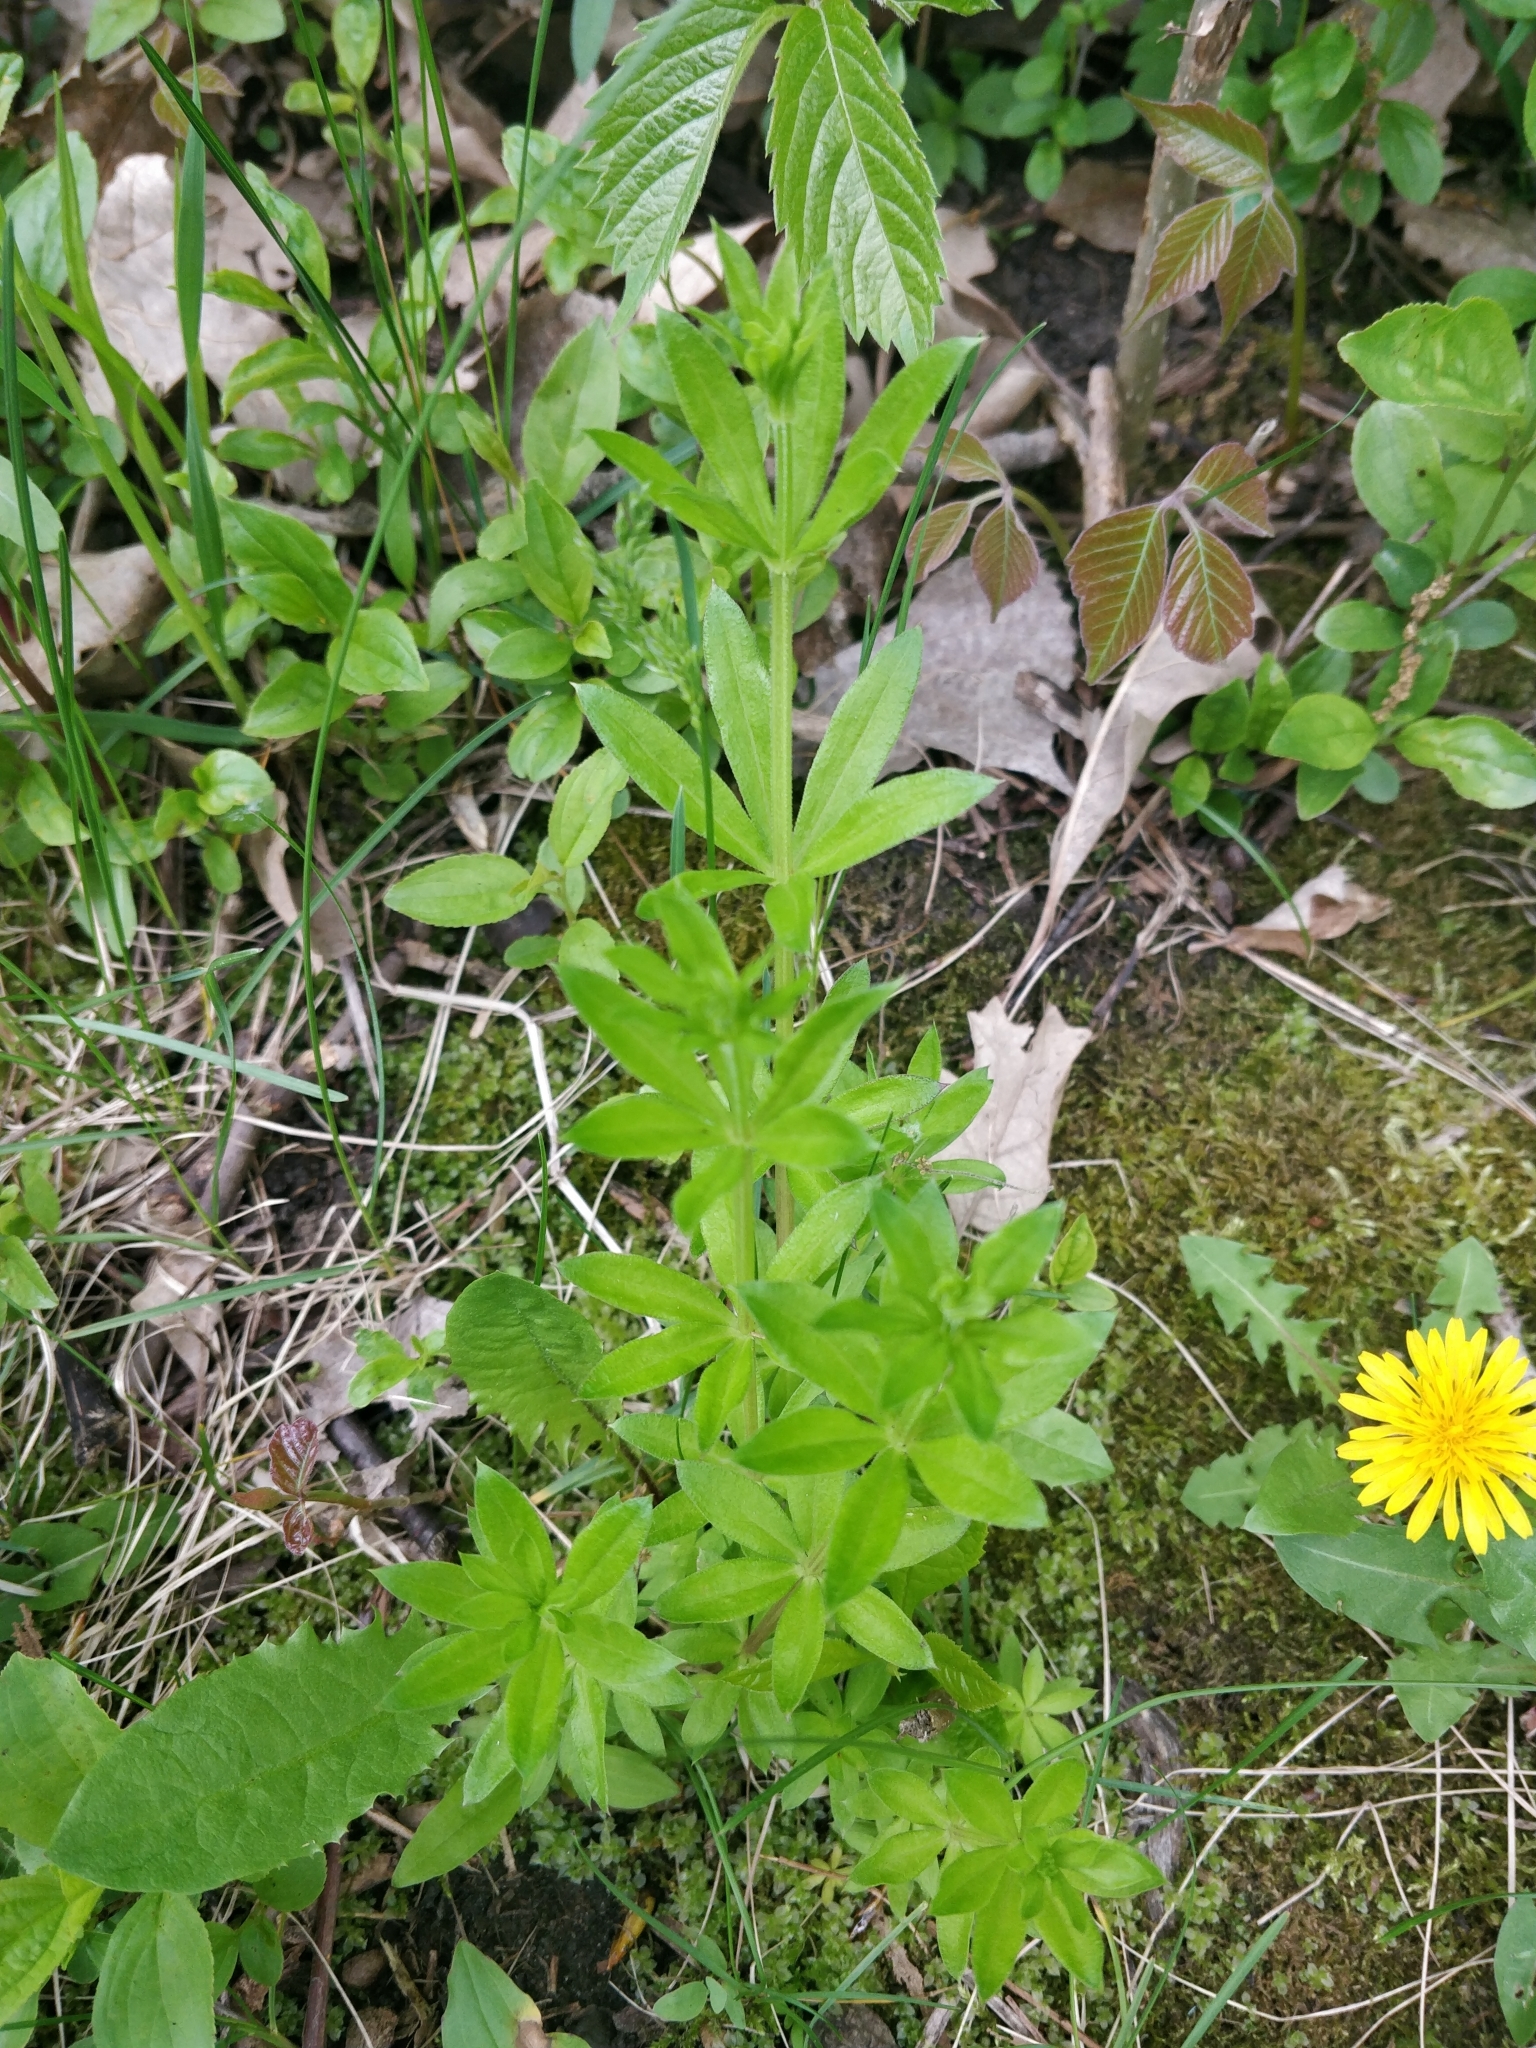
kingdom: Plantae
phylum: Tracheophyta
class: Magnoliopsida
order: Gentianales
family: Rubiaceae
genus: Galium
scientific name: Galium triflorum
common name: Fragrant bedstraw
